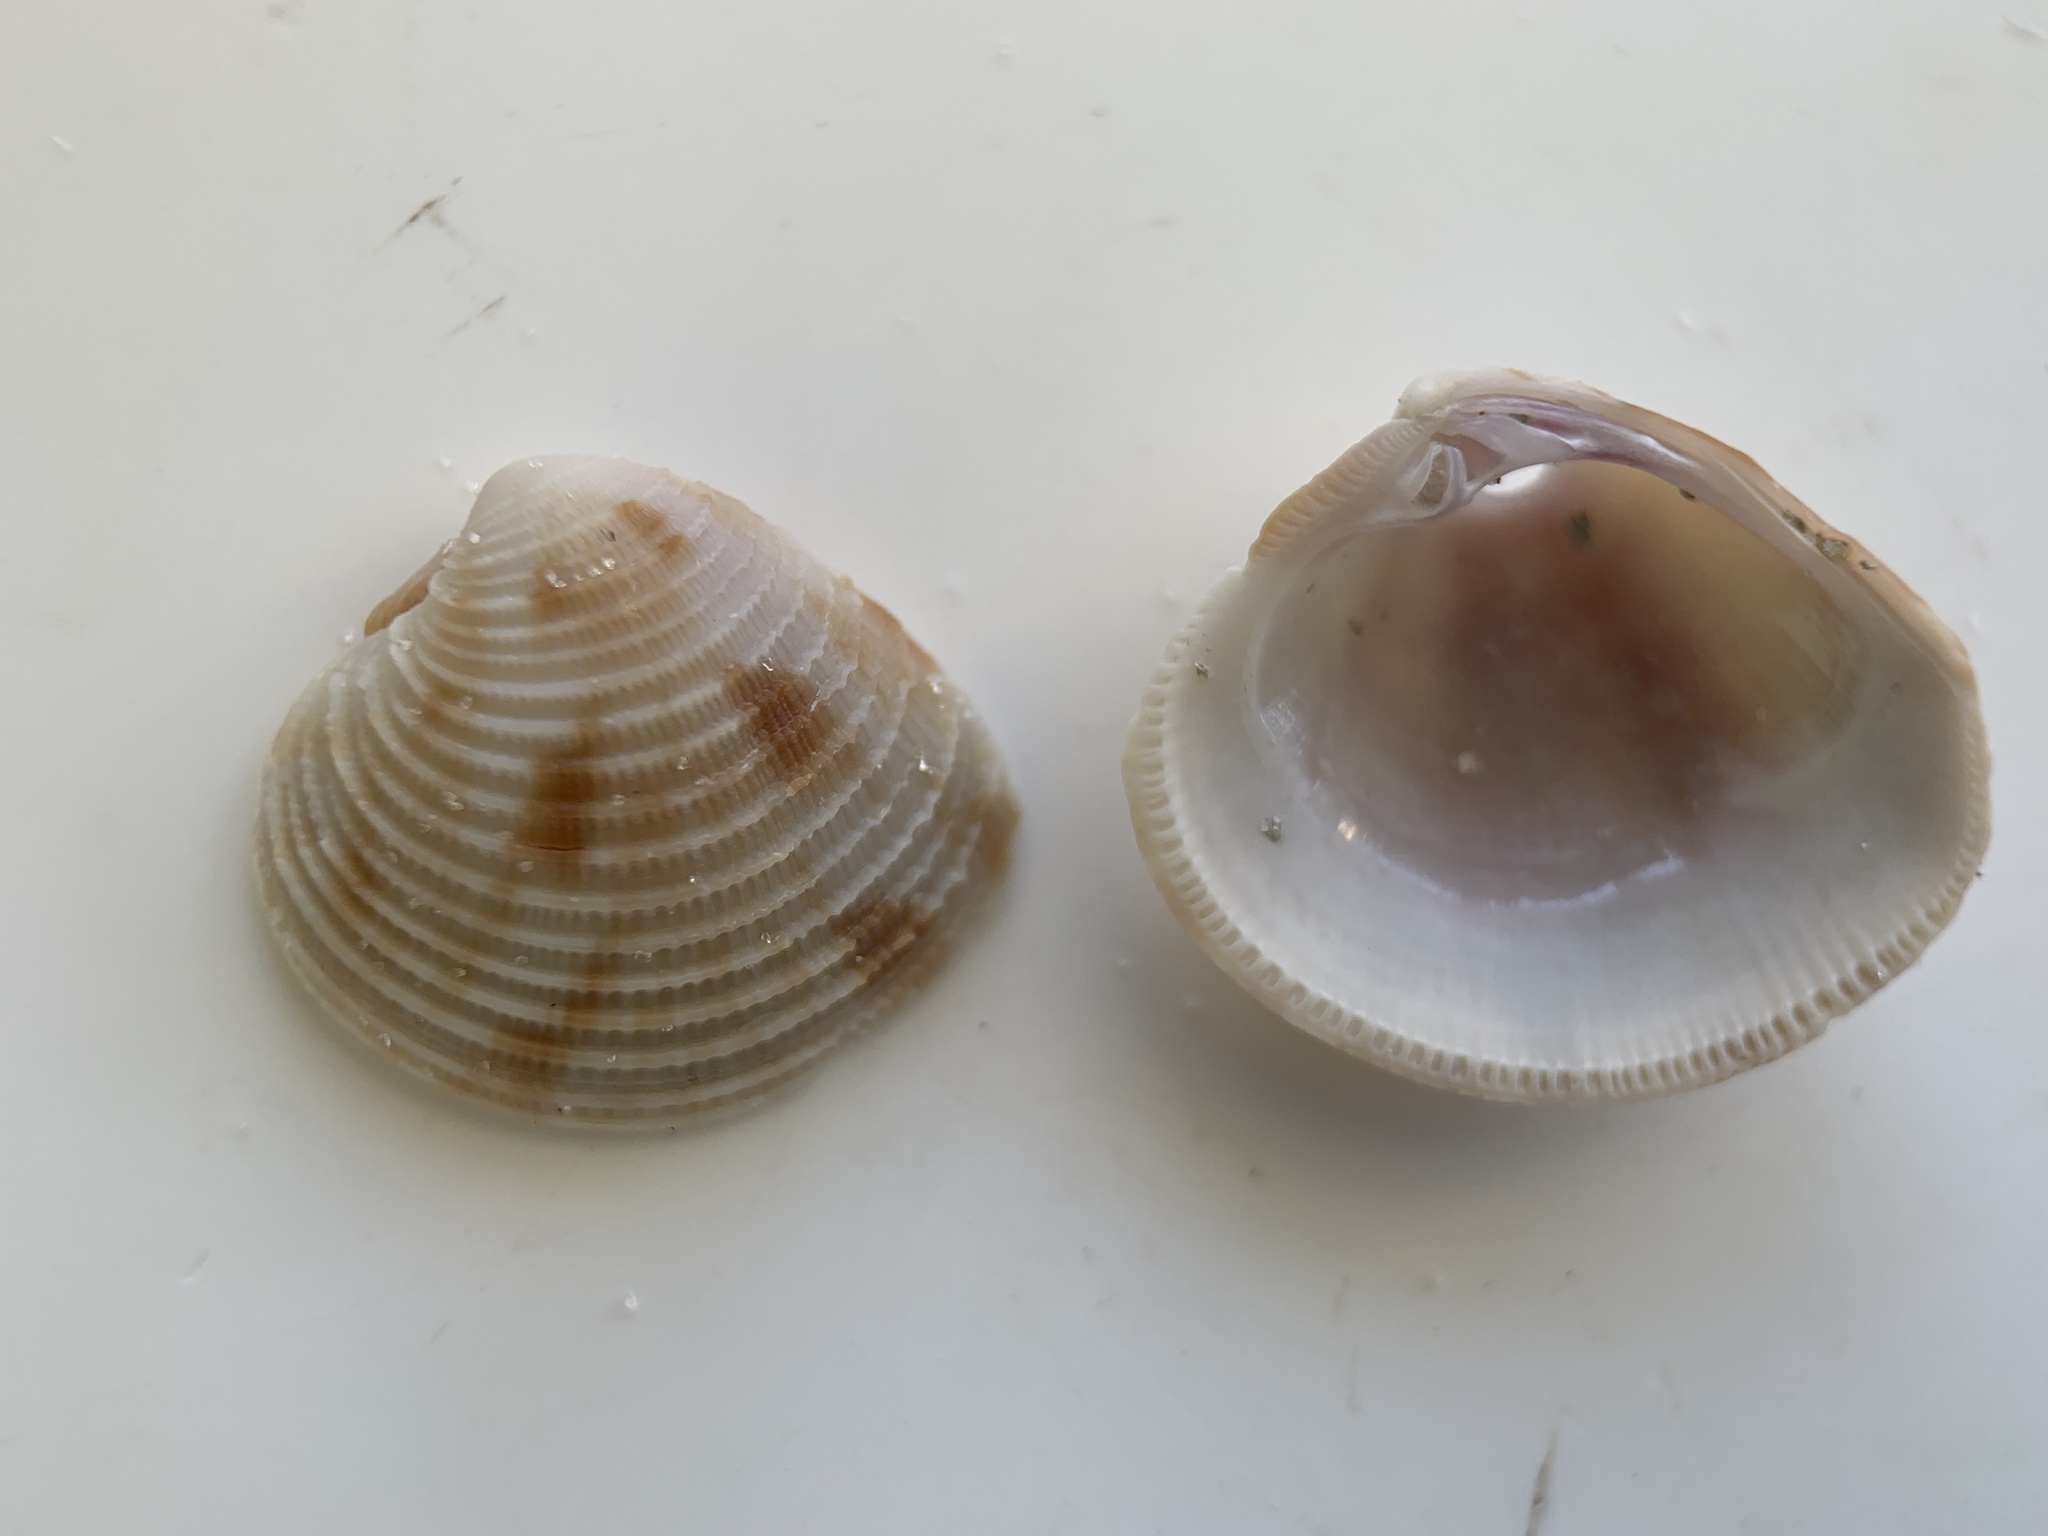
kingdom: Animalia
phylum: Mollusca
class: Bivalvia
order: Venerida
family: Veneridae
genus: Chionopsis
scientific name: Chionopsis intapurpurea
